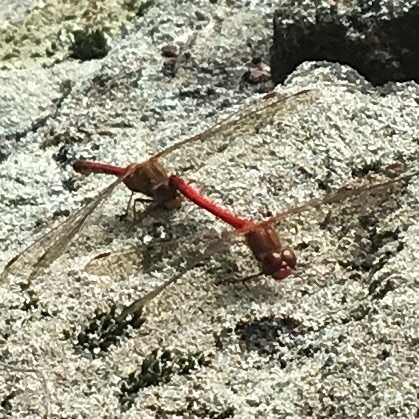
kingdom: Animalia
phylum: Arthropoda
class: Insecta
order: Odonata
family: Libellulidae
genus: Sympetrum
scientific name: Sympetrum vicinum
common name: Autumn meadowhawk
